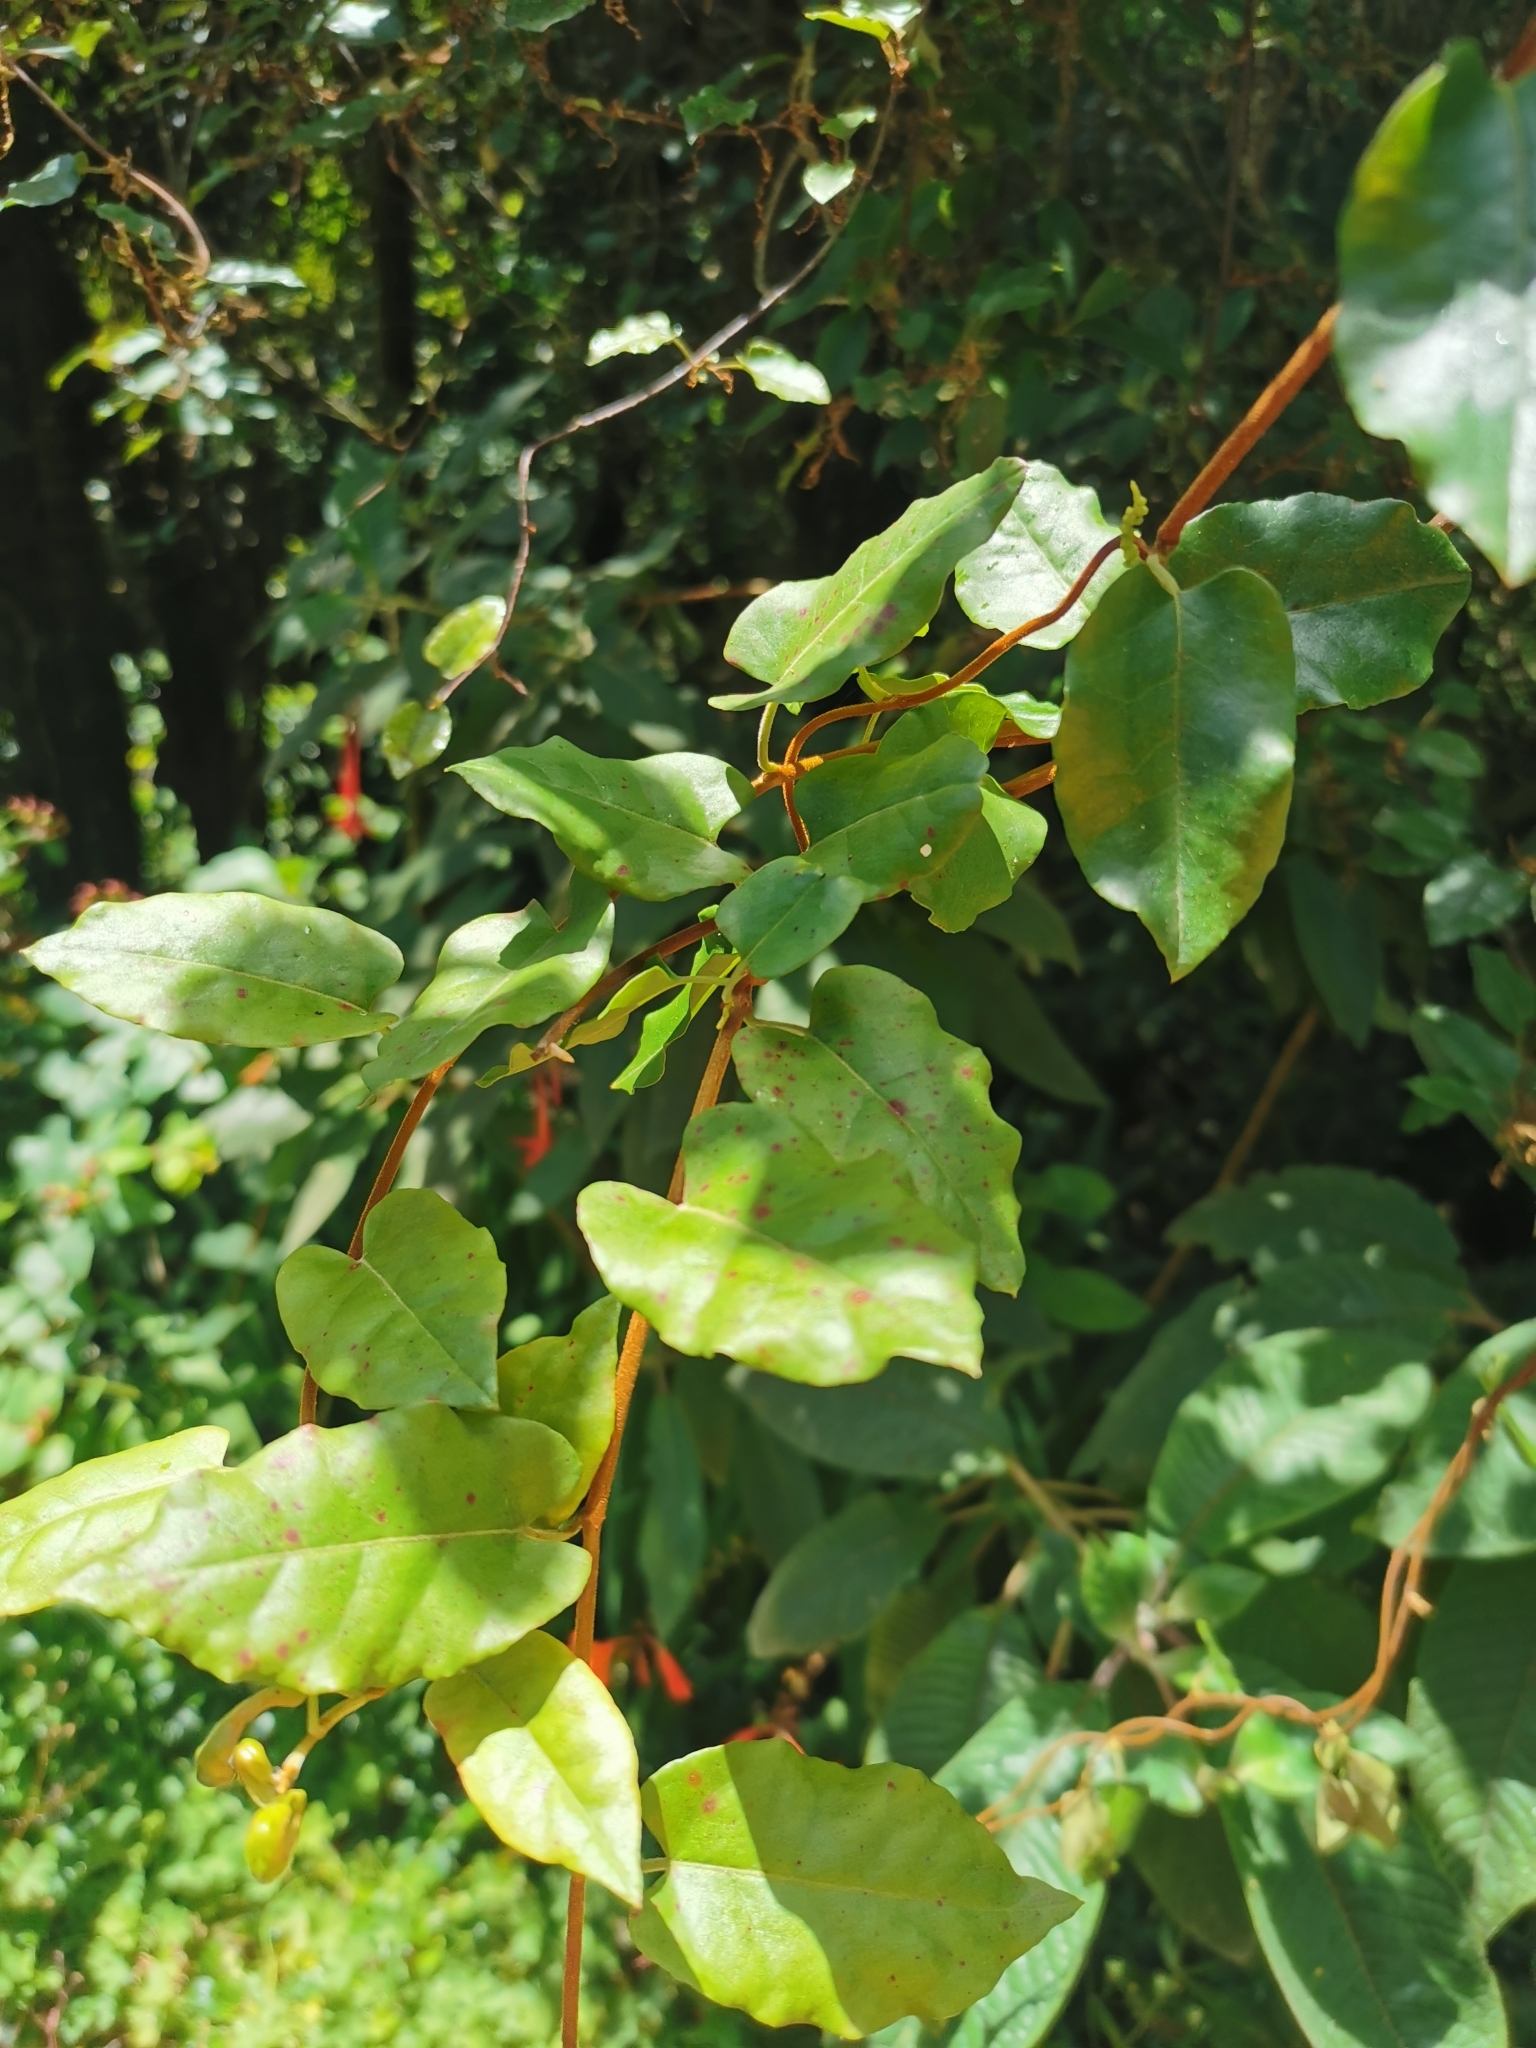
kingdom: Plantae
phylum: Tracheophyta
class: Magnoliopsida
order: Caryophyllales
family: Polygonaceae
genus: Muehlenbeckia
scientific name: Muehlenbeckia australis
